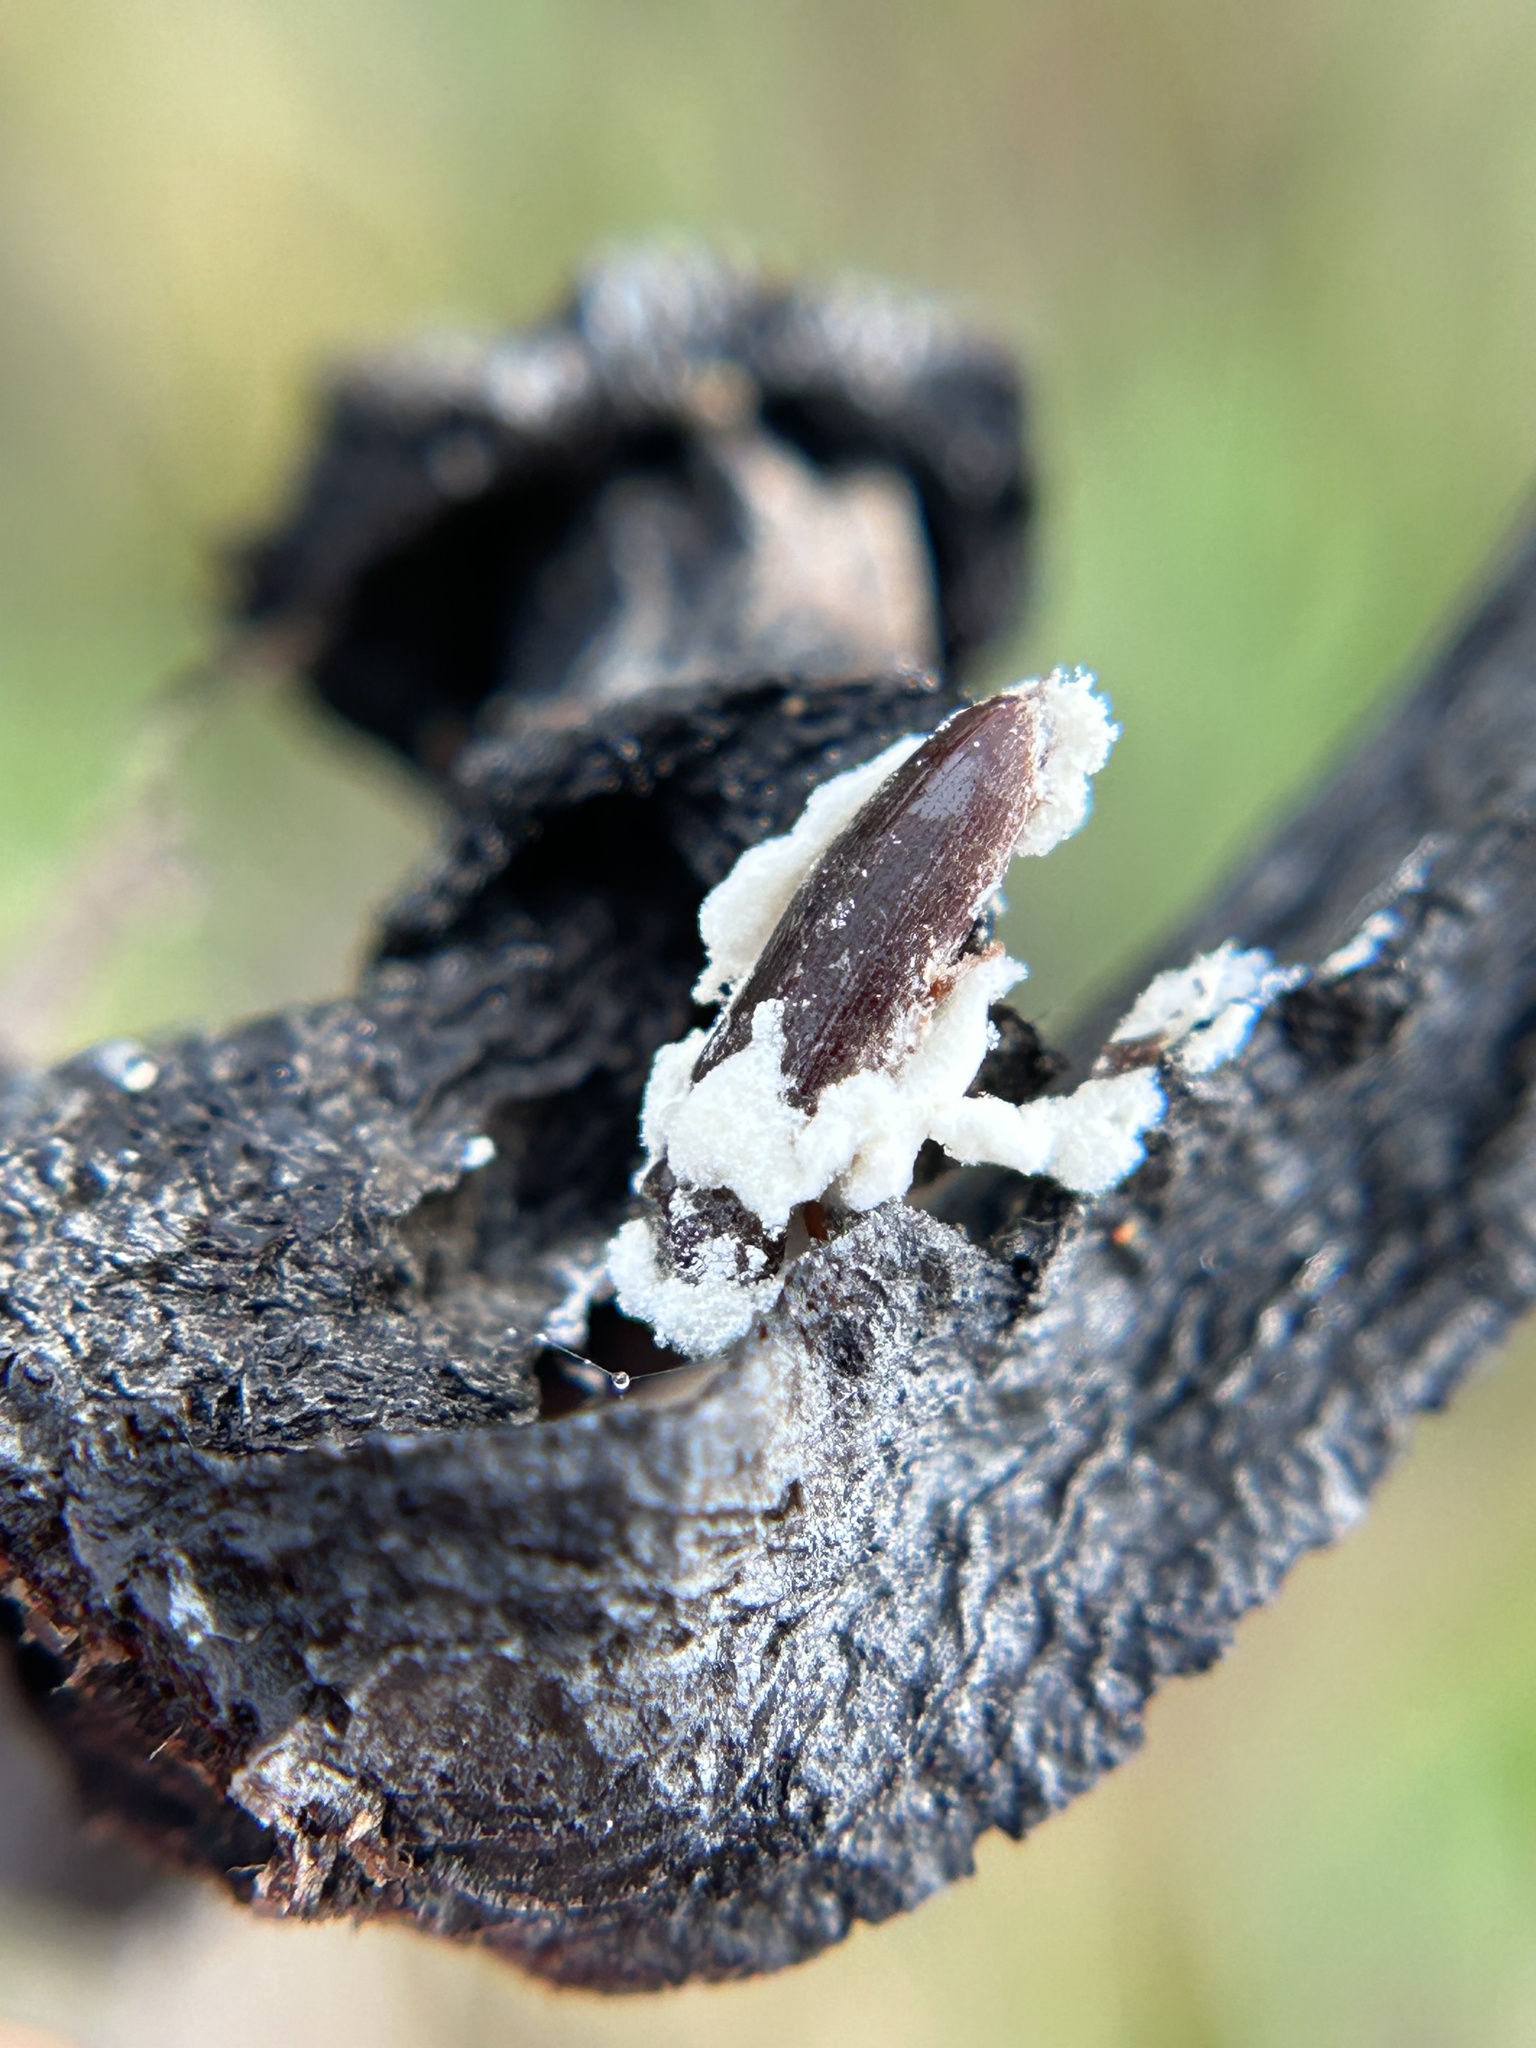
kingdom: Fungi
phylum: Ascomycota
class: Sordariomycetes
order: Hypocreales
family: Cordycipitaceae
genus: Beauveria
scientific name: Beauveria bassiana
